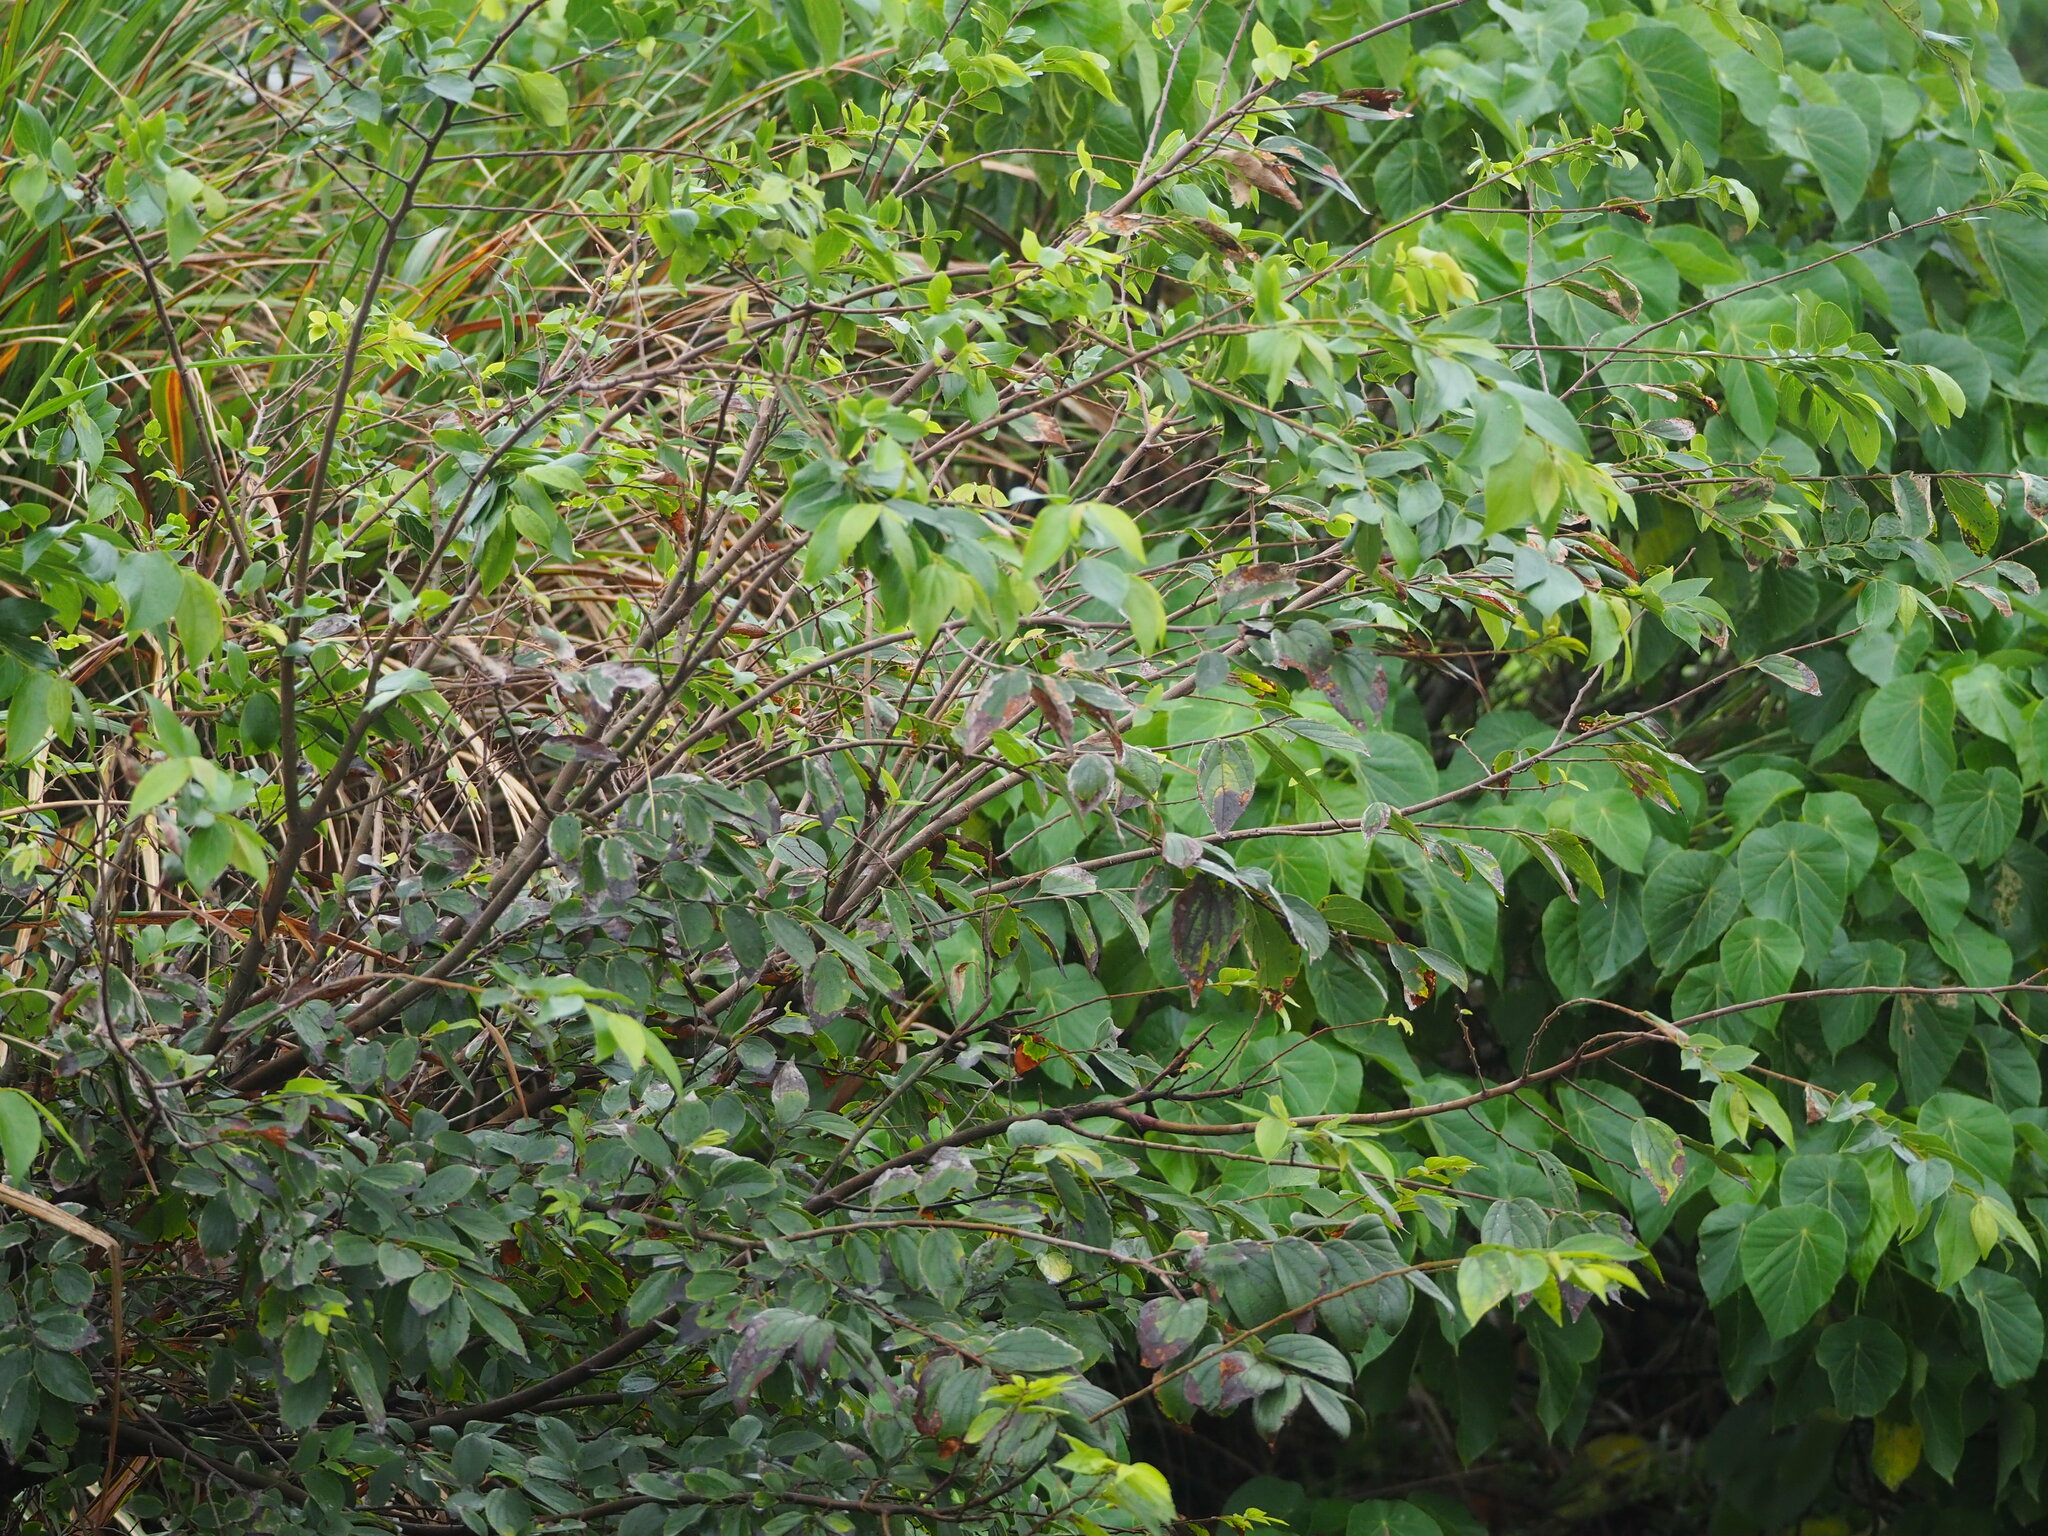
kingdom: Plantae
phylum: Tracheophyta
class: Magnoliopsida
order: Rosales
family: Cannabaceae
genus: Celtis
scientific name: Celtis sinensis
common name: Chinese hackberry
